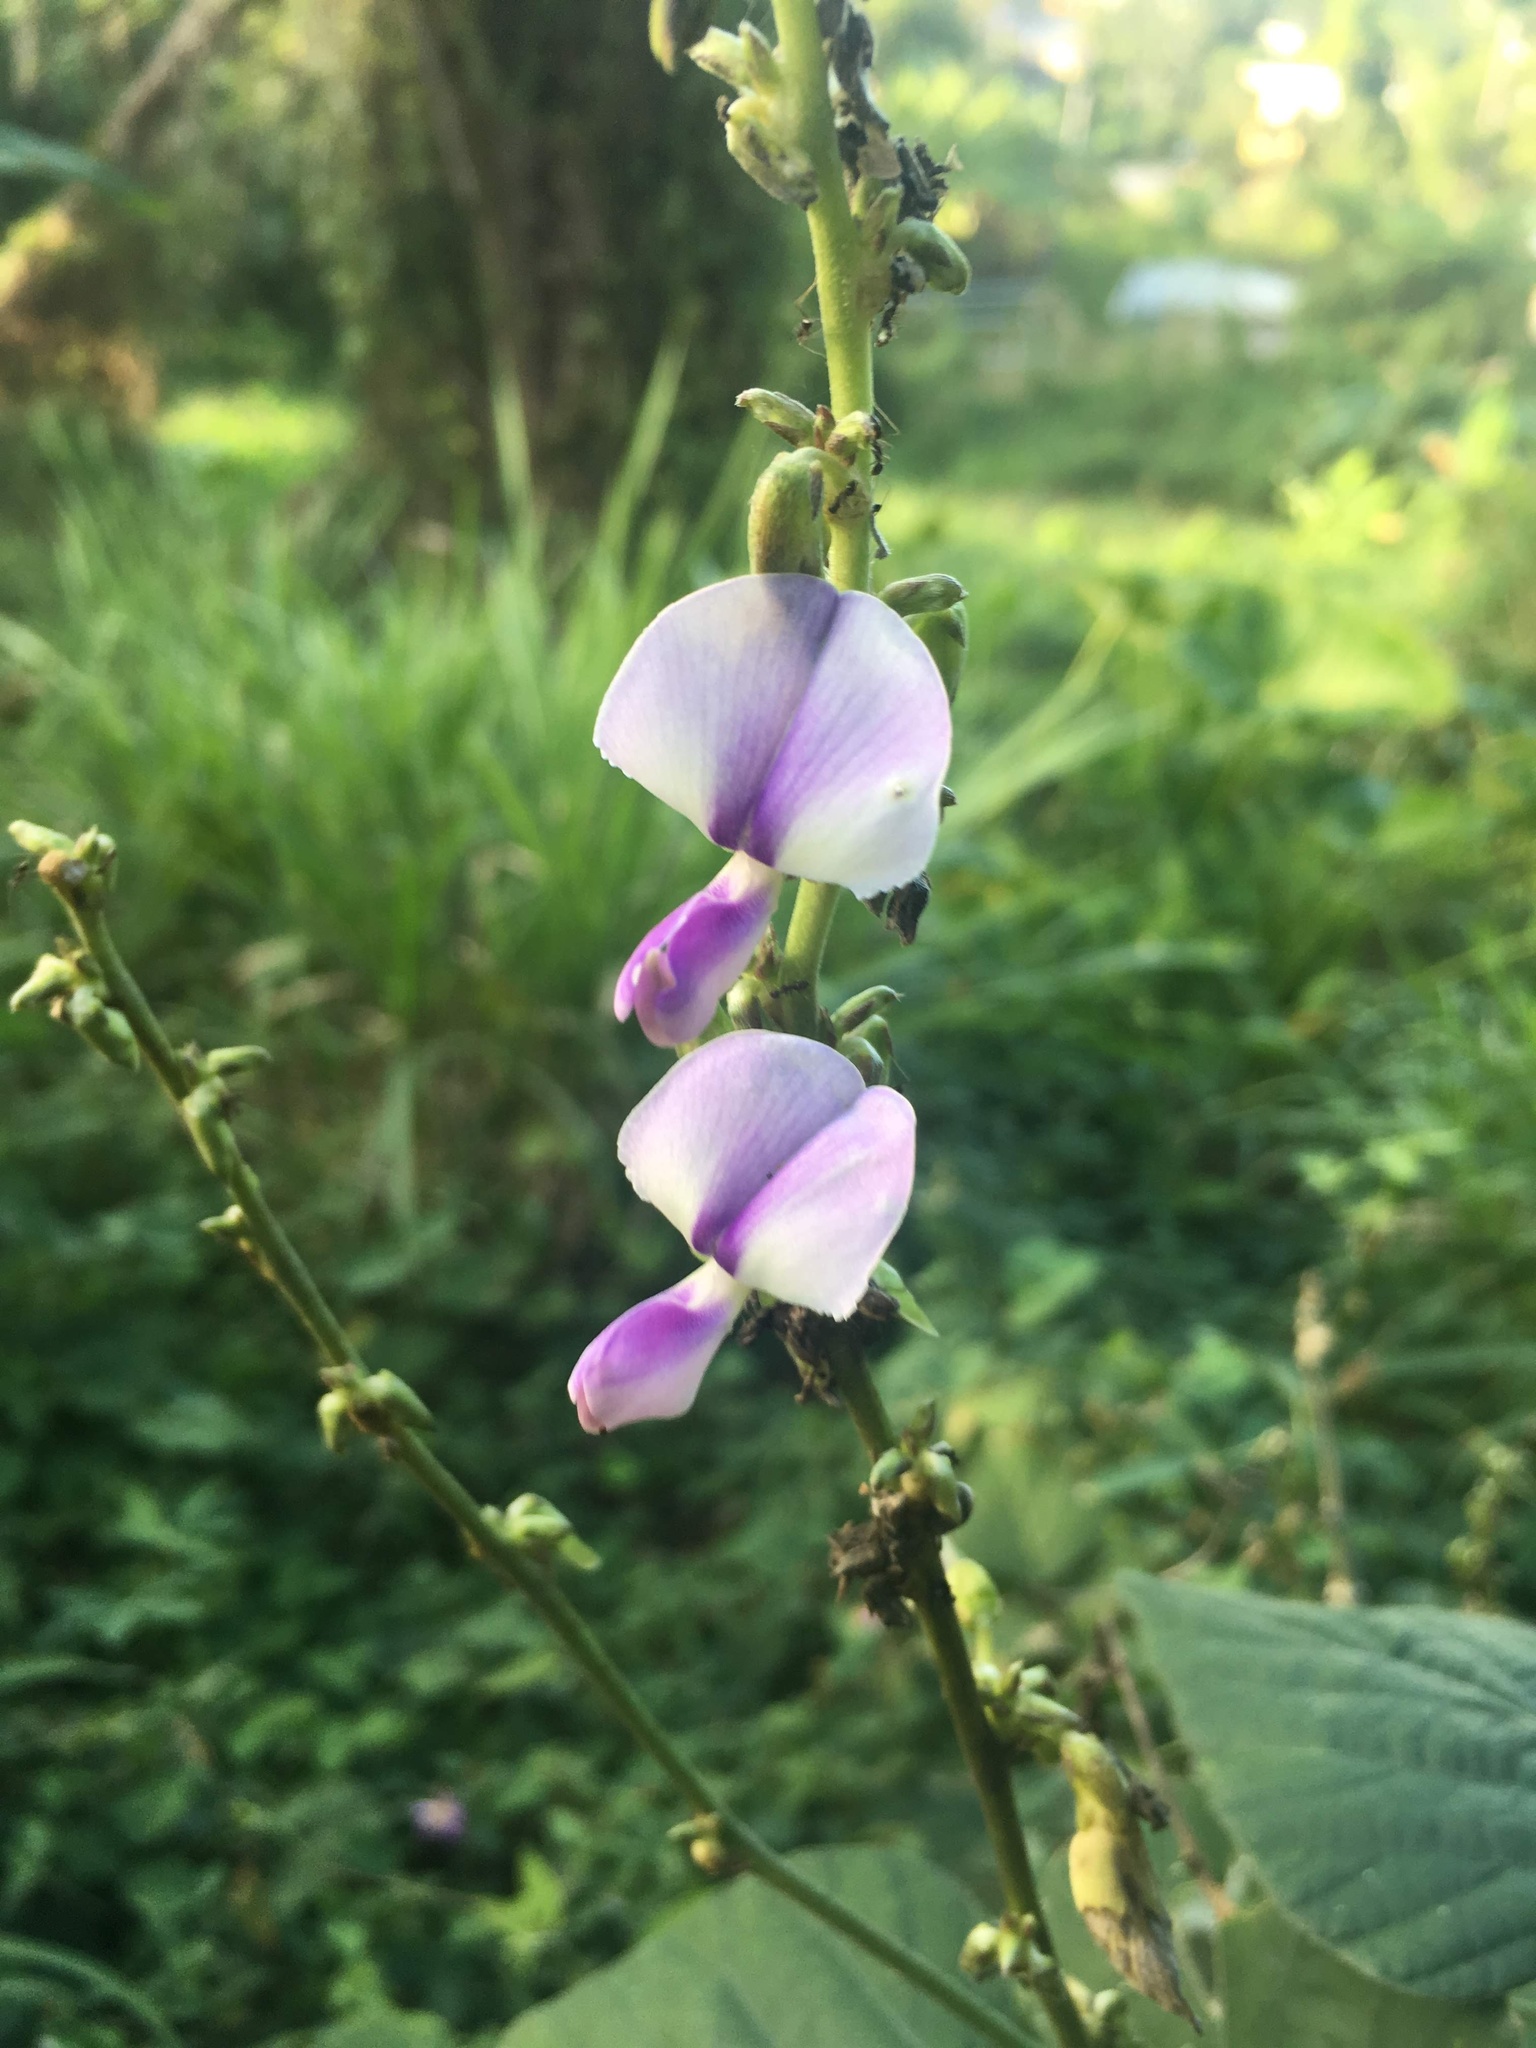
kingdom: Plantae
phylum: Tracheophyta
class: Magnoliopsida
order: Fabales
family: Fabaceae
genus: Neustanthus
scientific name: Neustanthus phaseoloides
